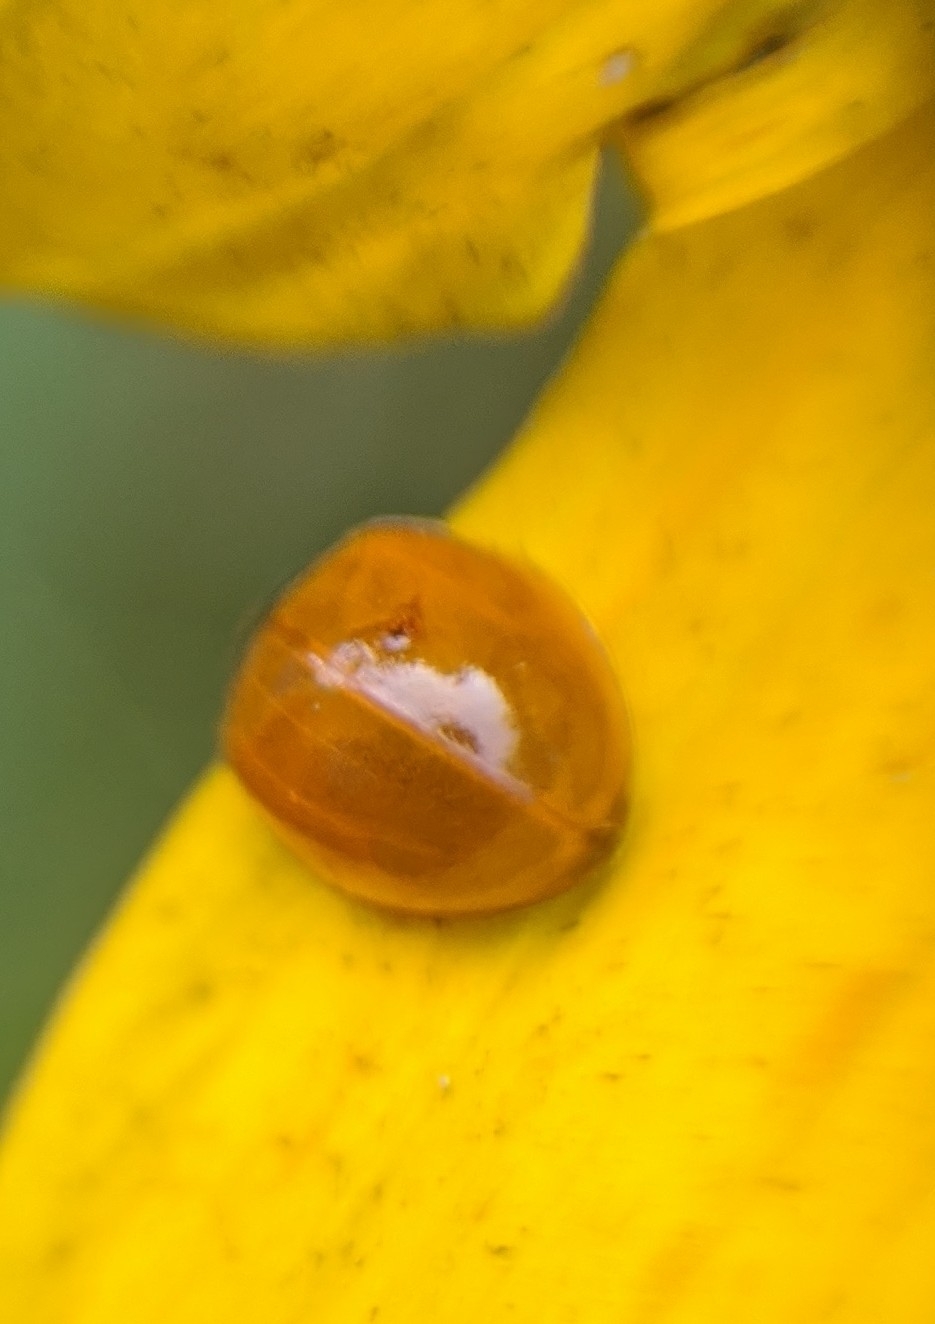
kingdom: Animalia
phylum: Arthropoda
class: Insecta
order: Coleoptera
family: Coccinellidae
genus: Cycloneda
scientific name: Cycloneda munda
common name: Polished lady beetle
